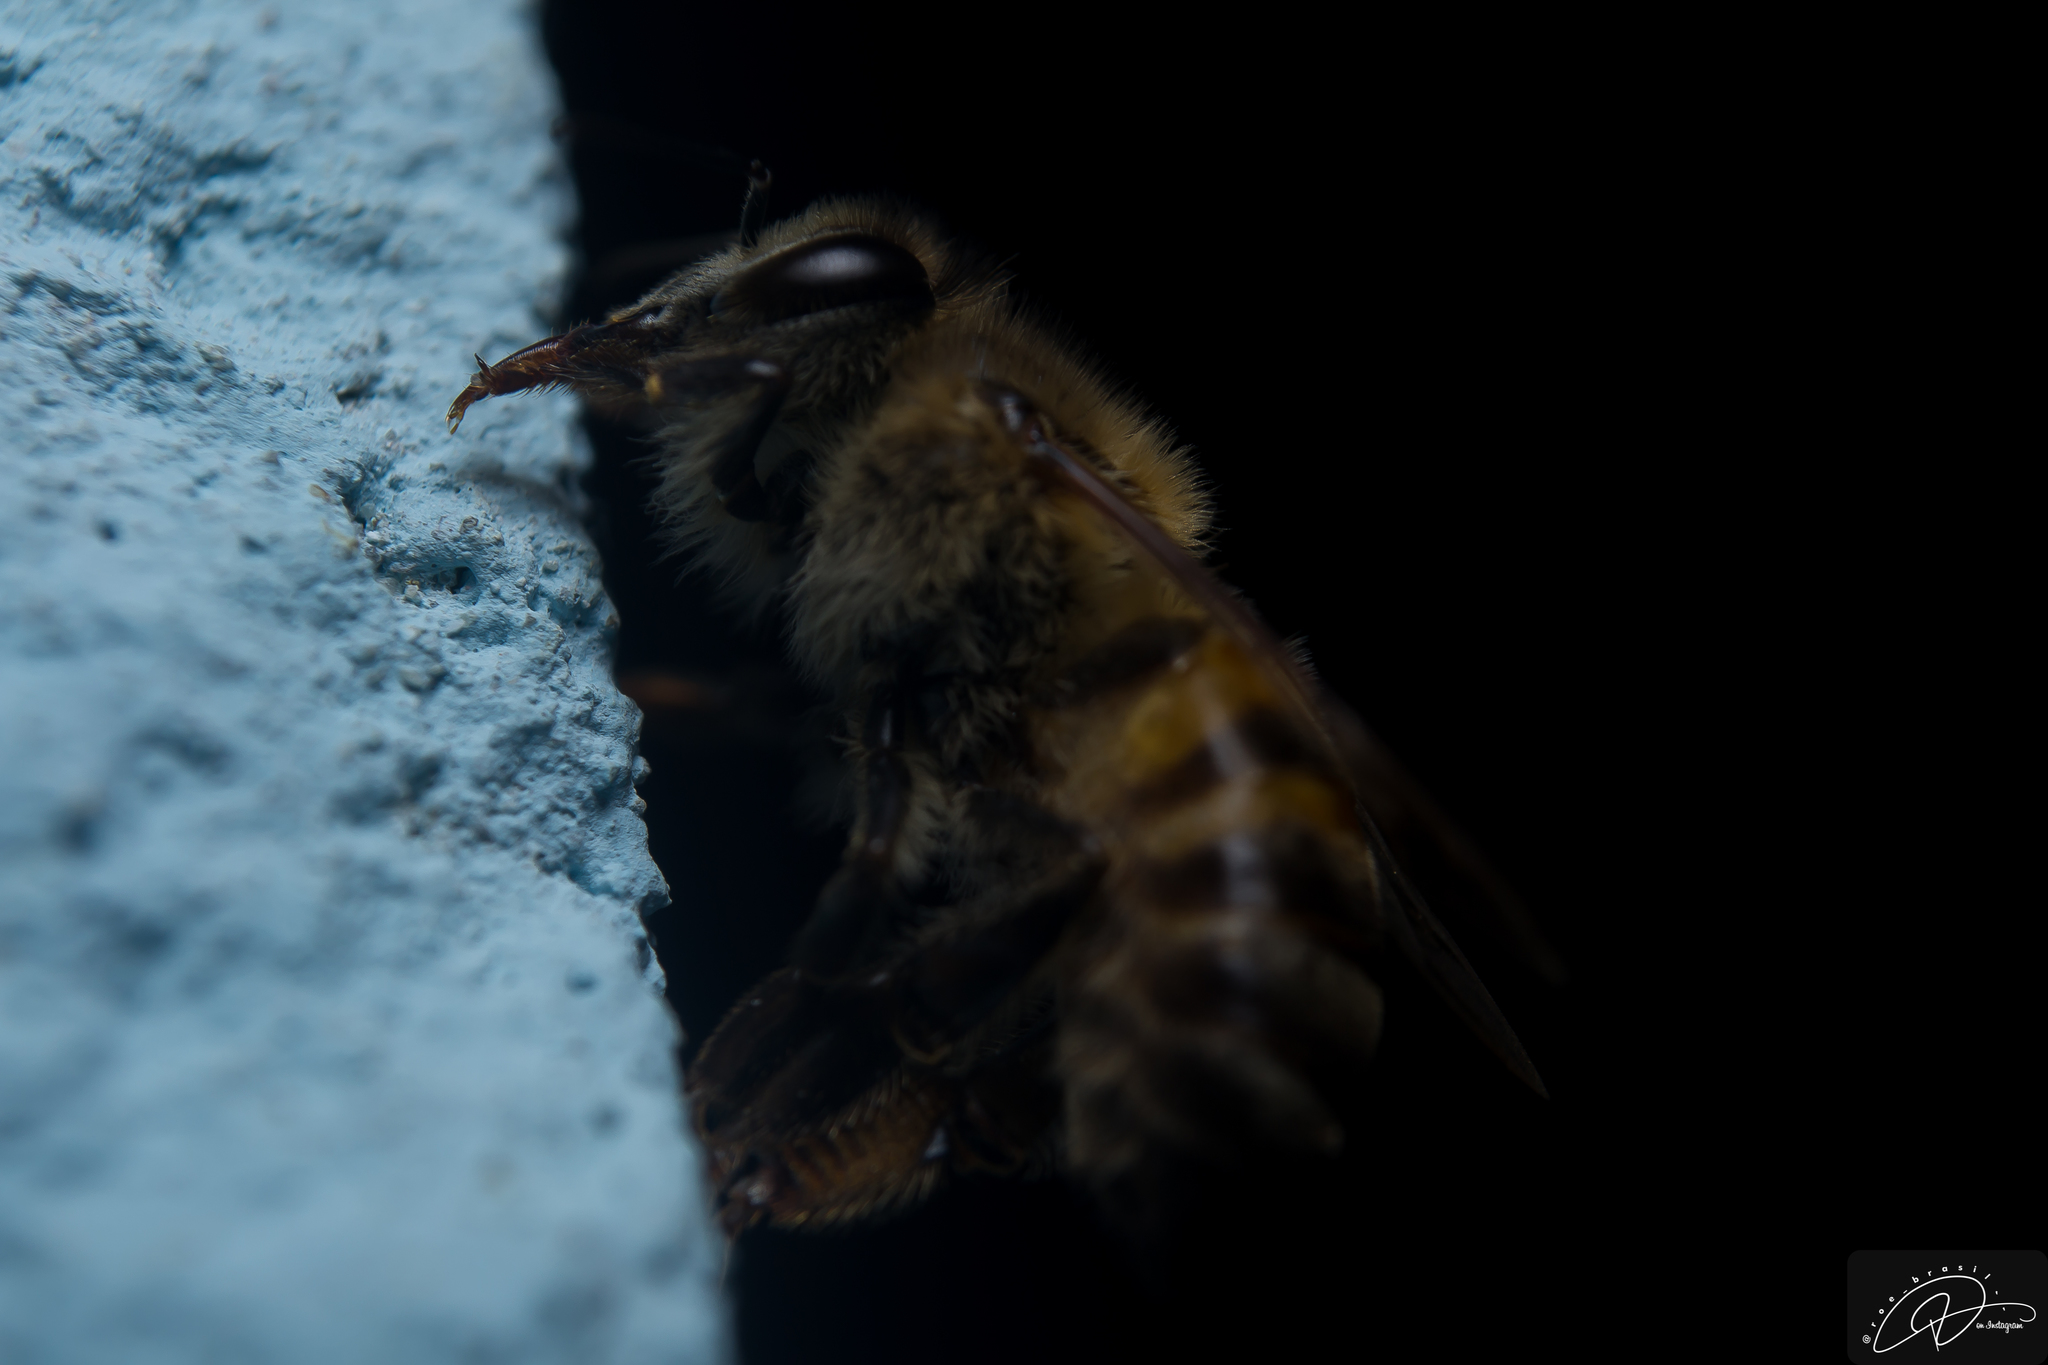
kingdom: Animalia
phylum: Arthropoda
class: Insecta
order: Hymenoptera
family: Apidae
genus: Apis
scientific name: Apis mellifera
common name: Honey bee
